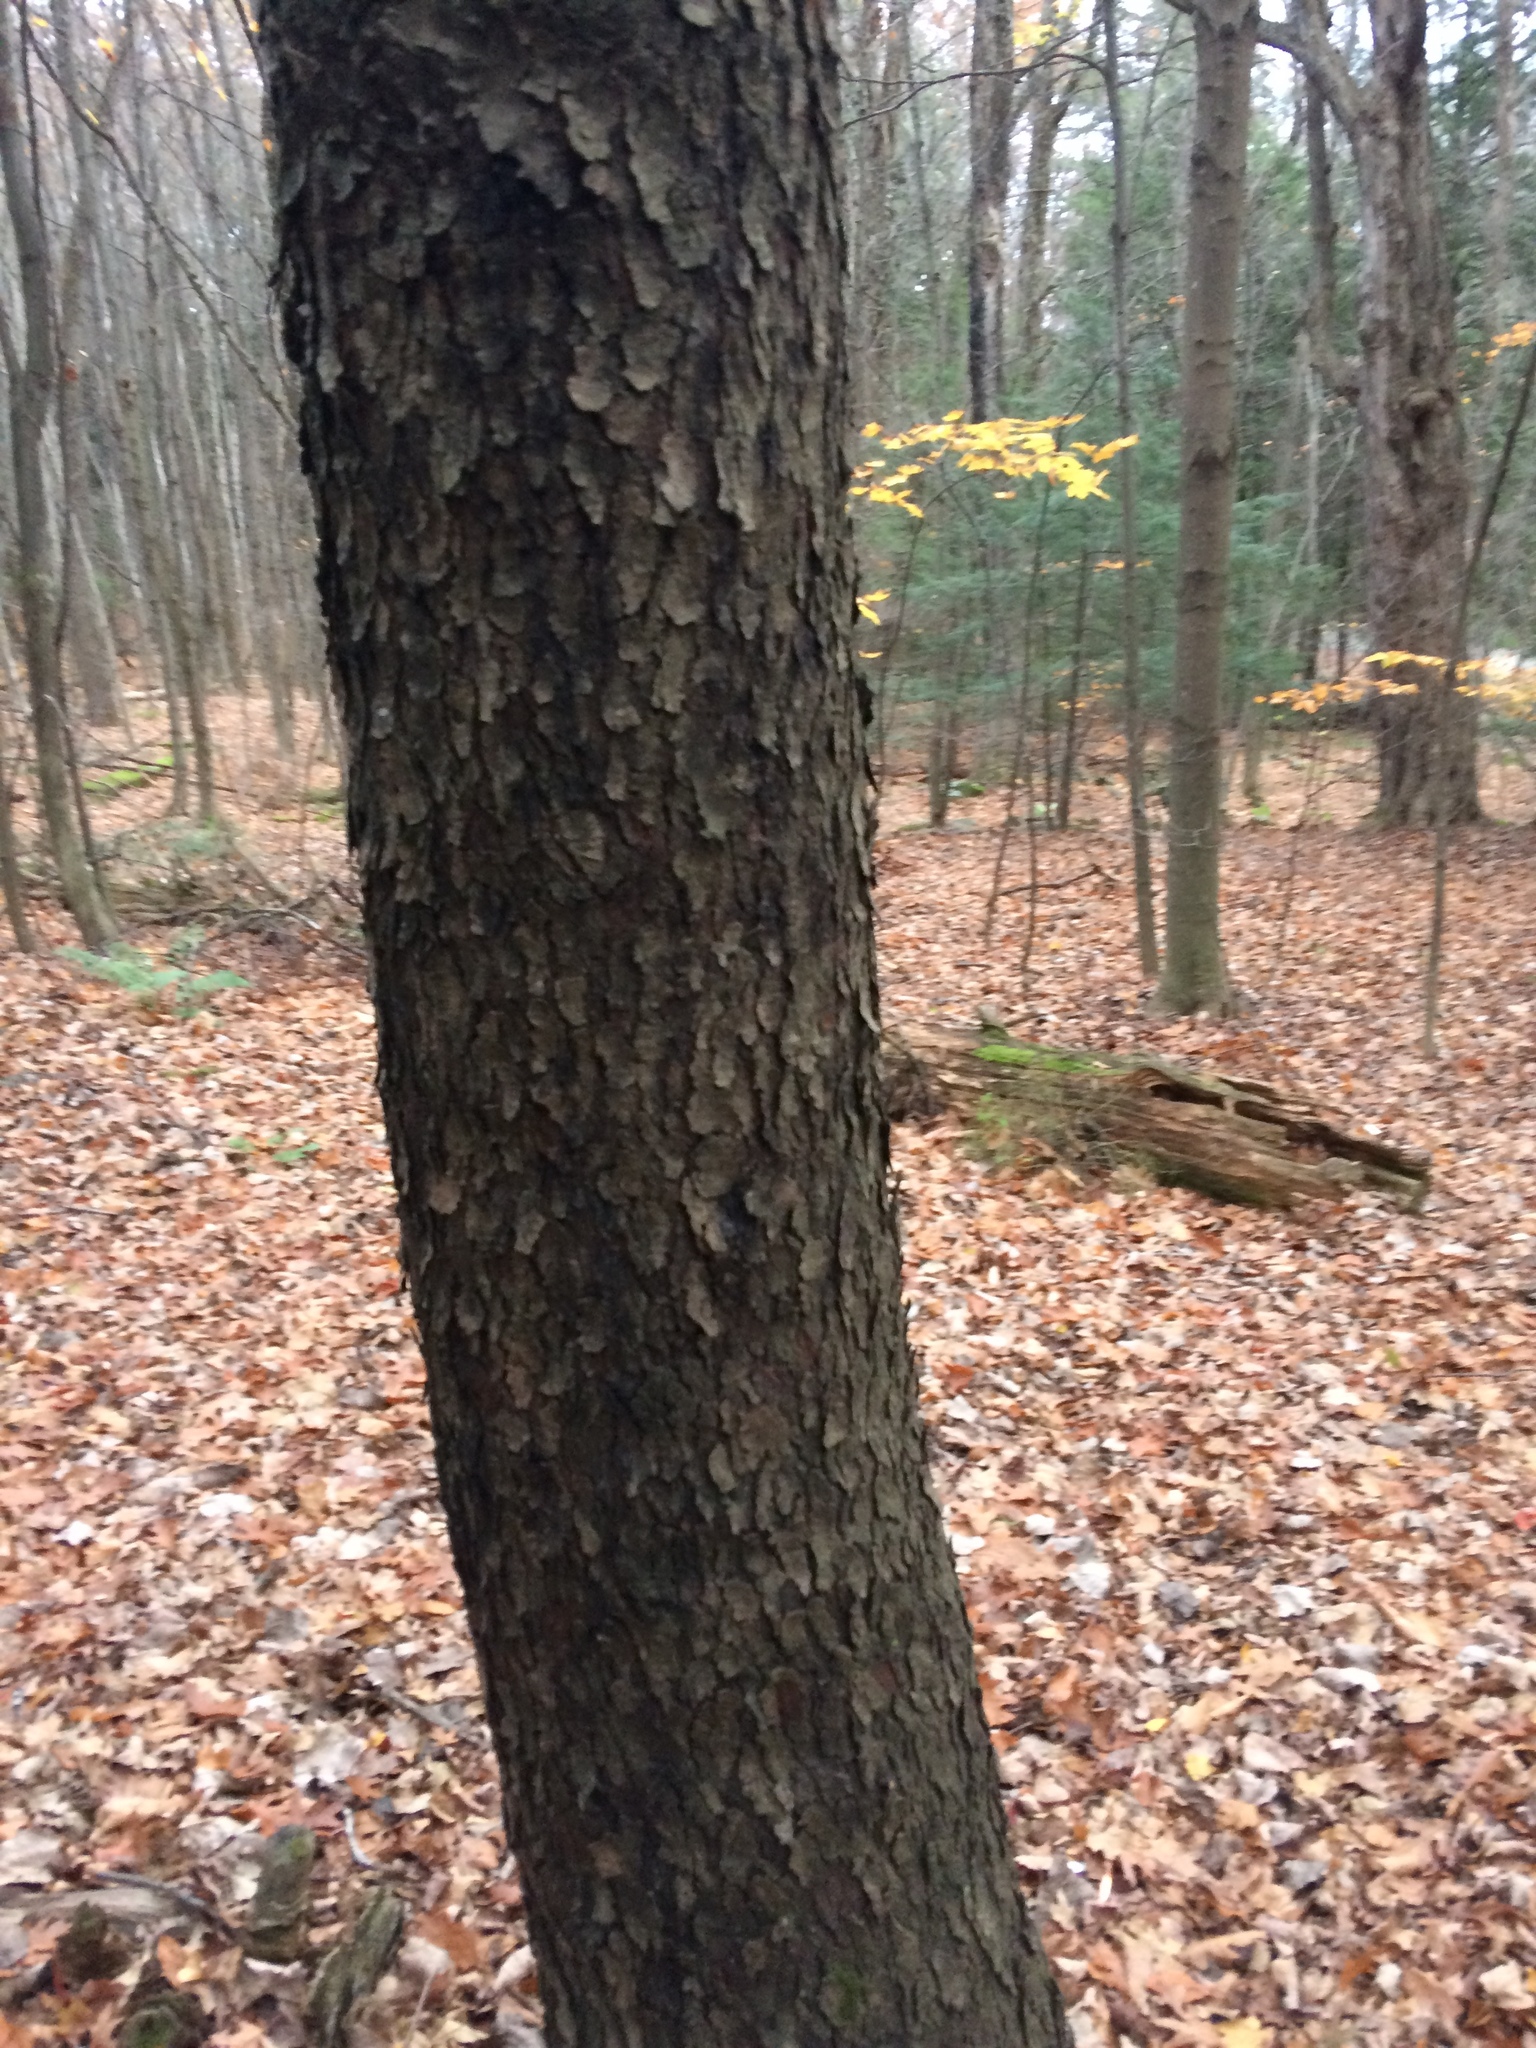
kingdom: Plantae
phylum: Tracheophyta
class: Magnoliopsida
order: Rosales
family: Rosaceae
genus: Prunus
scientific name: Prunus serotina
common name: Black cherry
